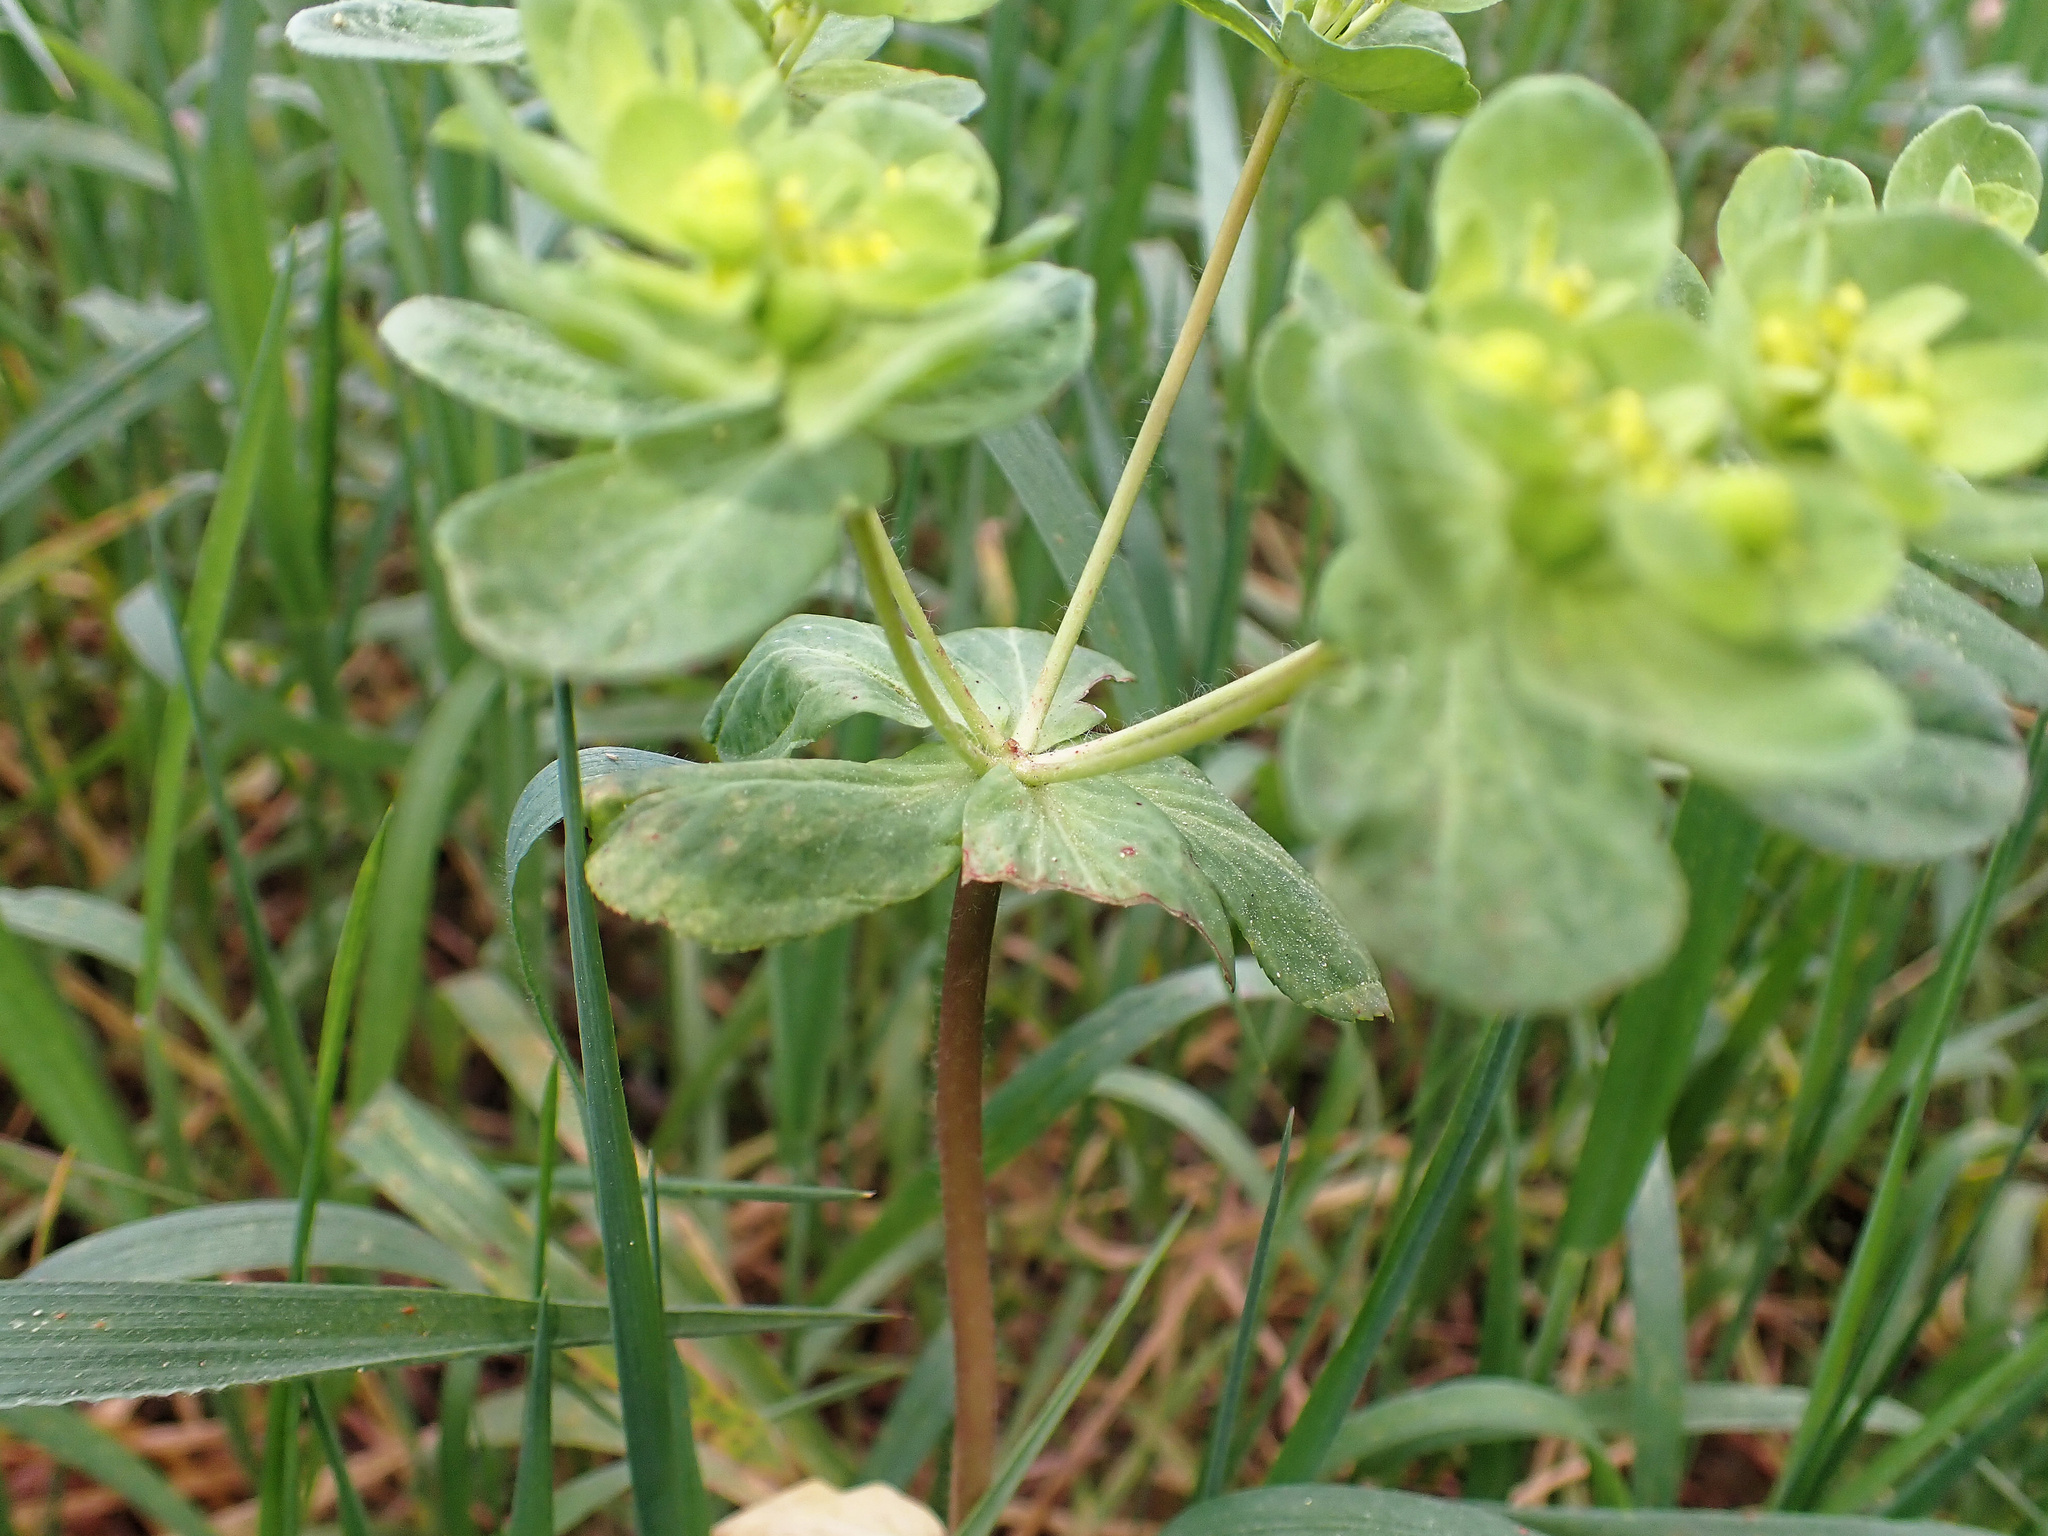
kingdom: Plantae
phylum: Tracheophyta
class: Magnoliopsida
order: Malpighiales
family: Euphorbiaceae
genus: Euphorbia
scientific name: Euphorbia helioscopia
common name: Sun spurge
